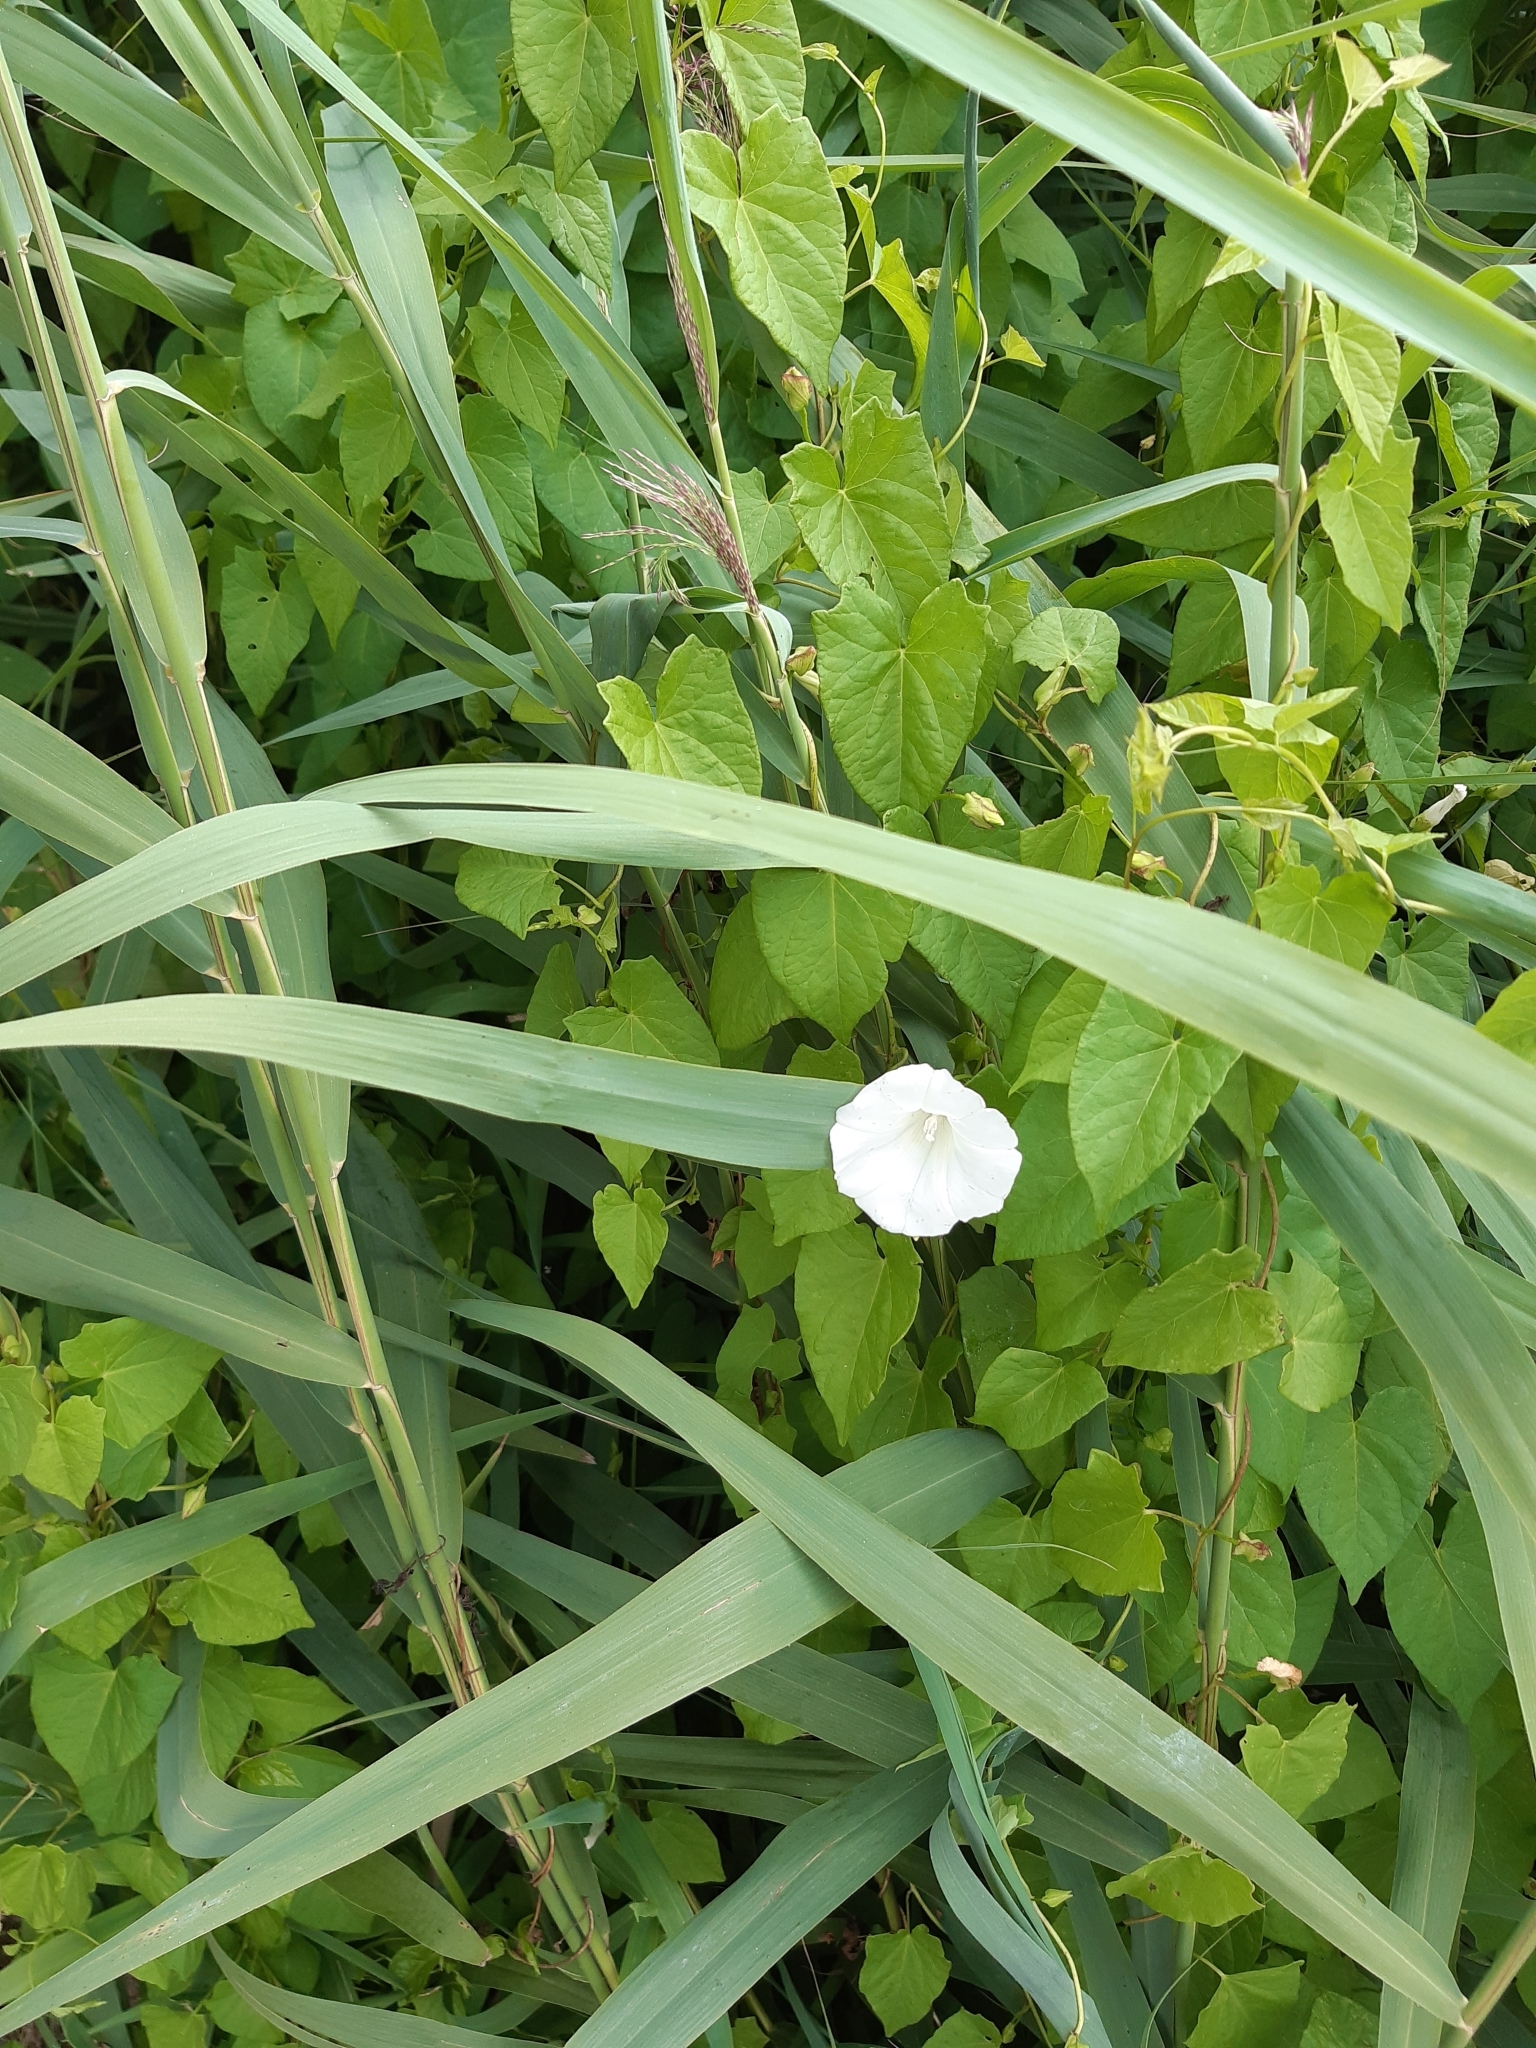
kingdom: Plantae
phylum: Tracheophyta
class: Magnoliopsida
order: Solanales
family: Convolvulaceae
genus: Calystegia
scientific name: Calystegia sepium
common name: Hedge bindweed
